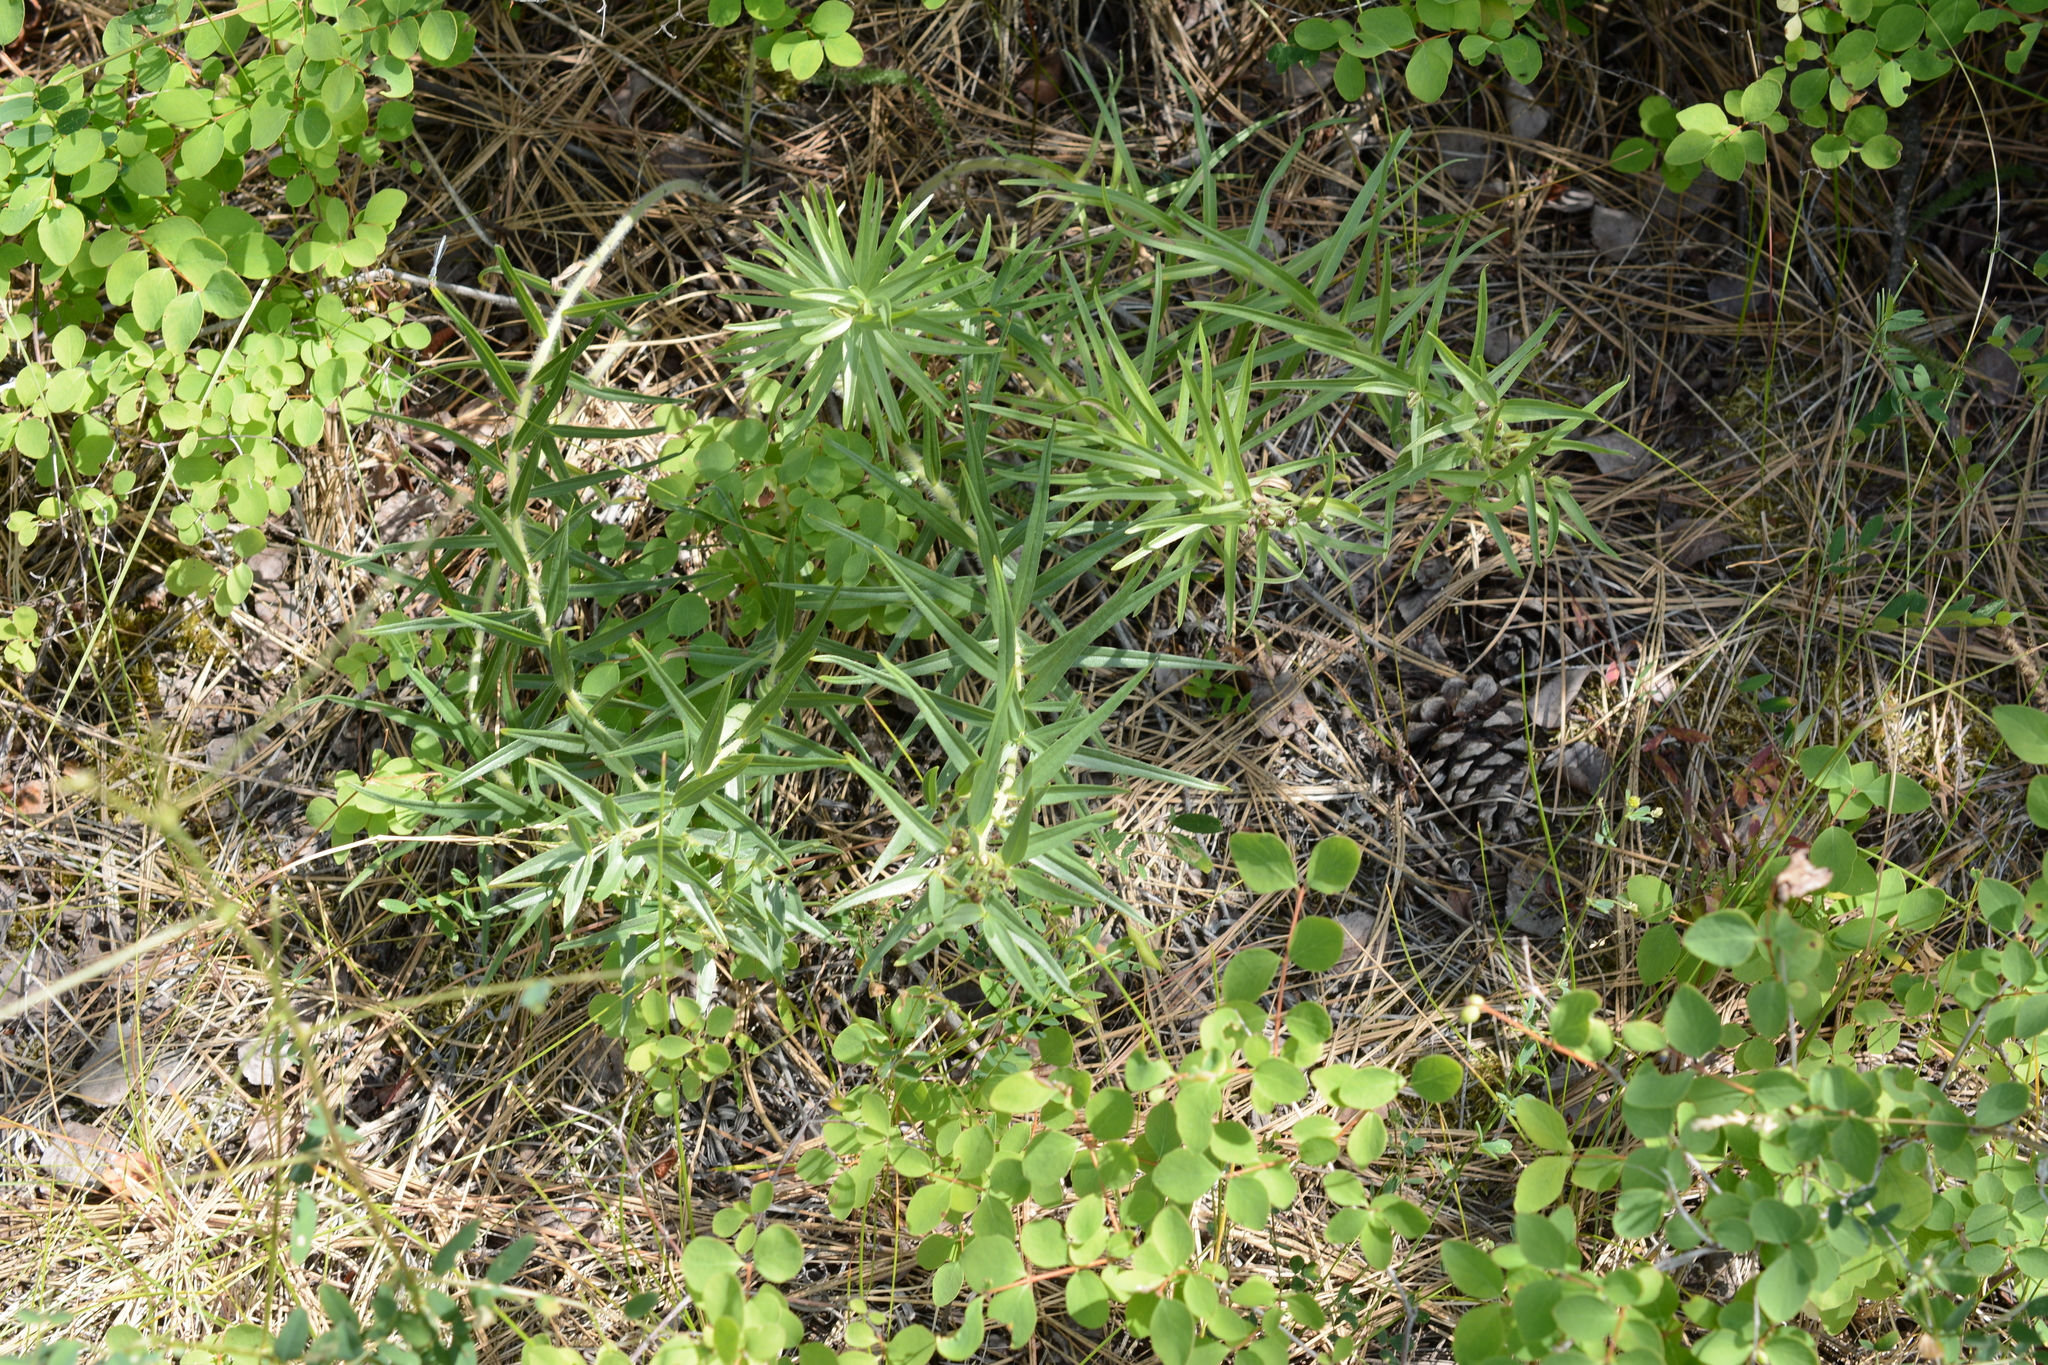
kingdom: Plantae
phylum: Tracheophyta
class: Magnoliopsida
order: Boraginales
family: Boraginaceae
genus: Lithospermum
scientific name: Lithospermum ruderale
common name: Western gromwell
